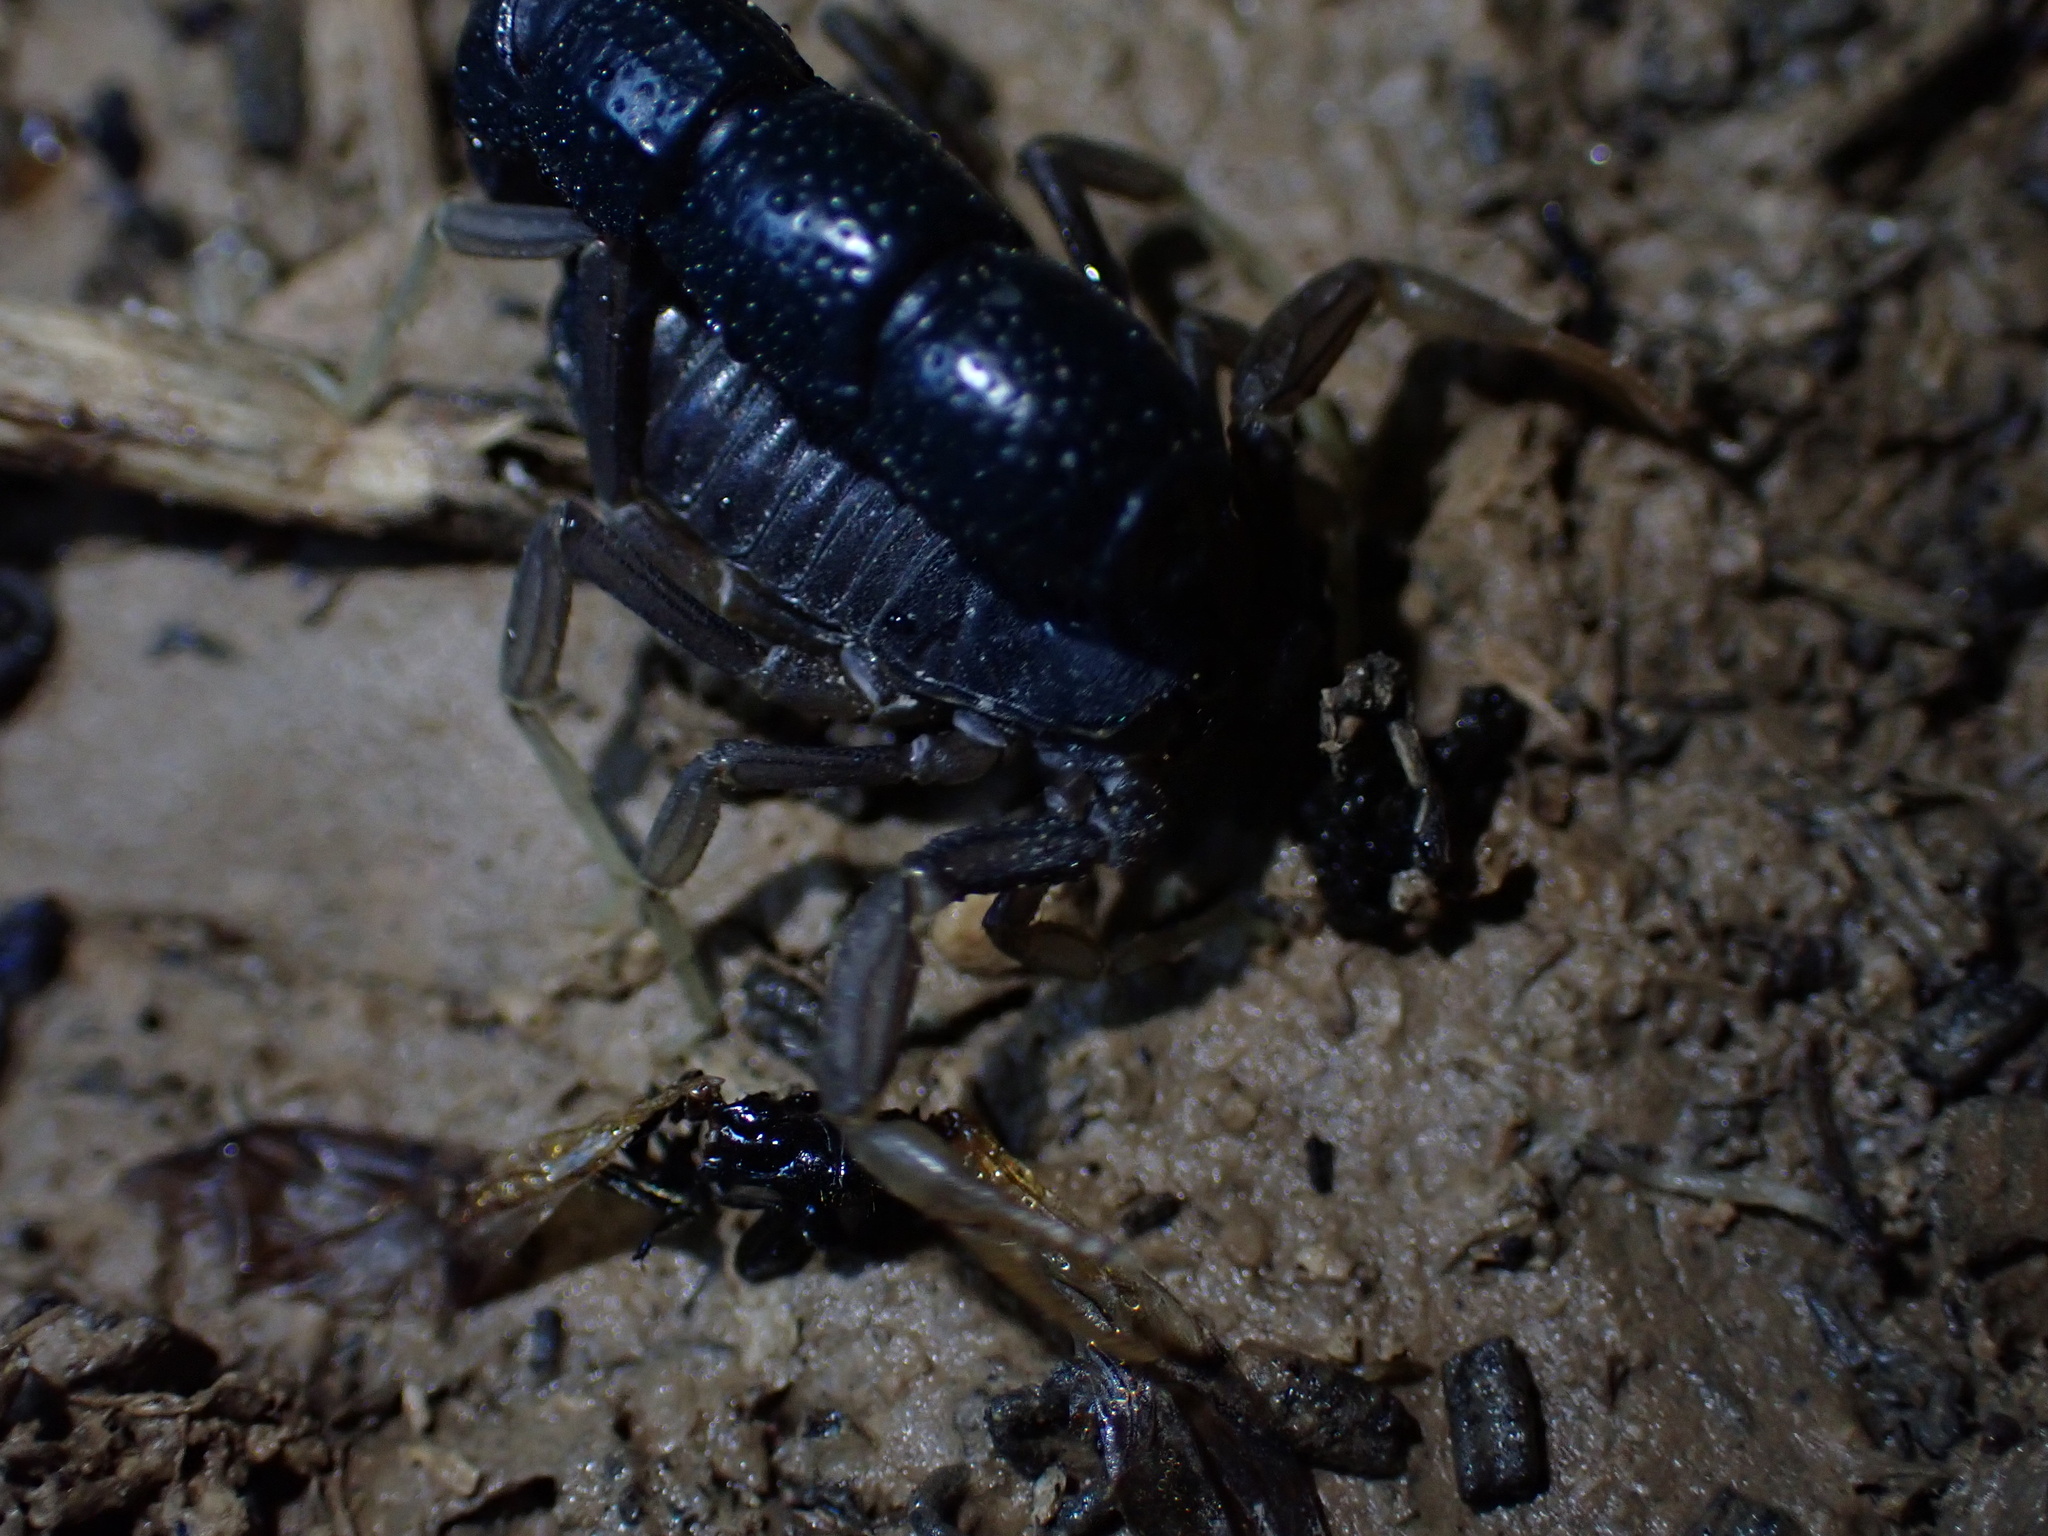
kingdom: Animalia
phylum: Arthropoda
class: Arachnida
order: Scorpiones
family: Buthidae
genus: Orthochirus
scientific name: Orthochirus farzanpayi
